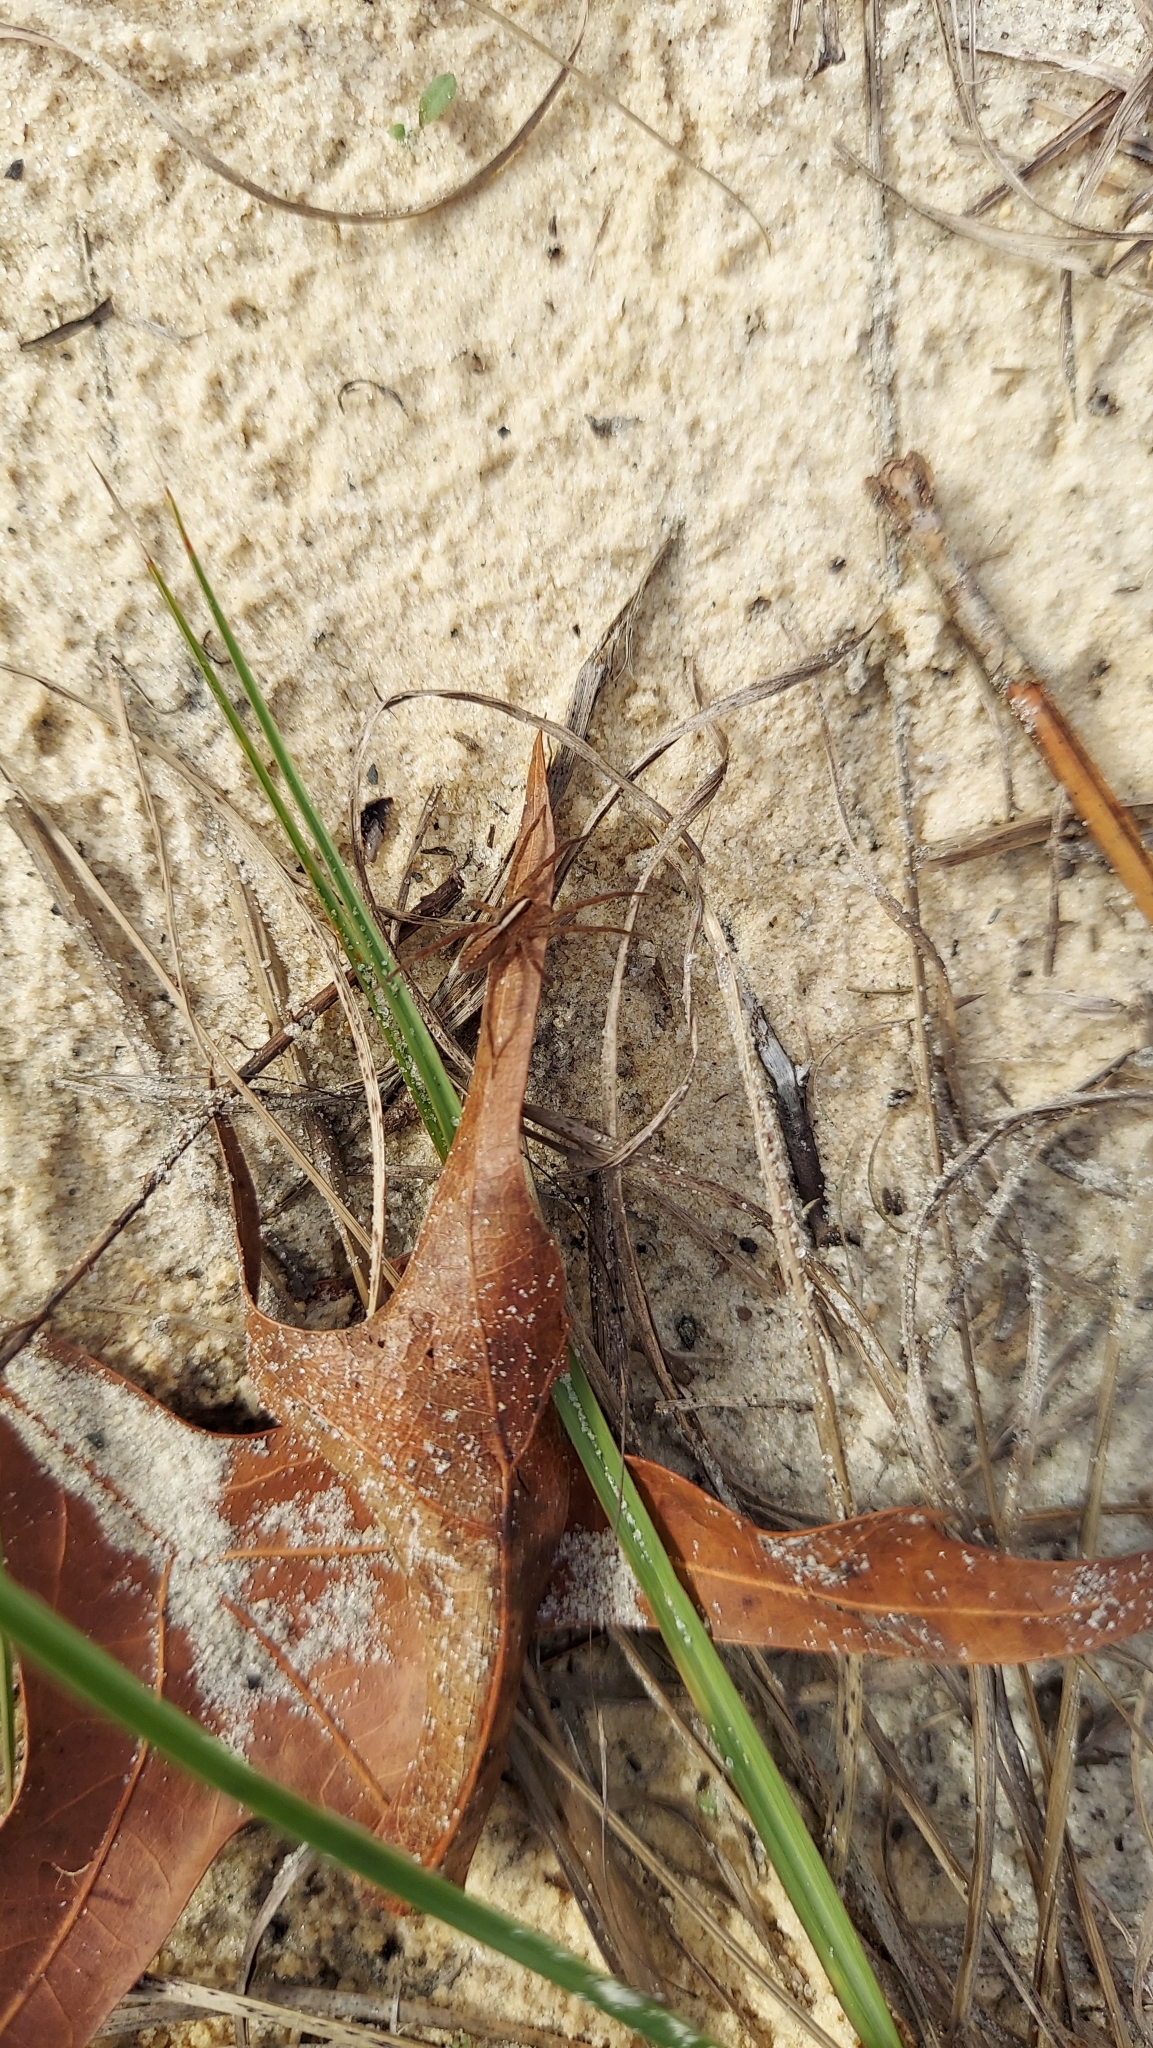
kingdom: Animalia
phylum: Arthropoda
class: Arachnida
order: Araneae
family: Lycosidae
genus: Rabidosa
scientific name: Rabidosa hentzi
